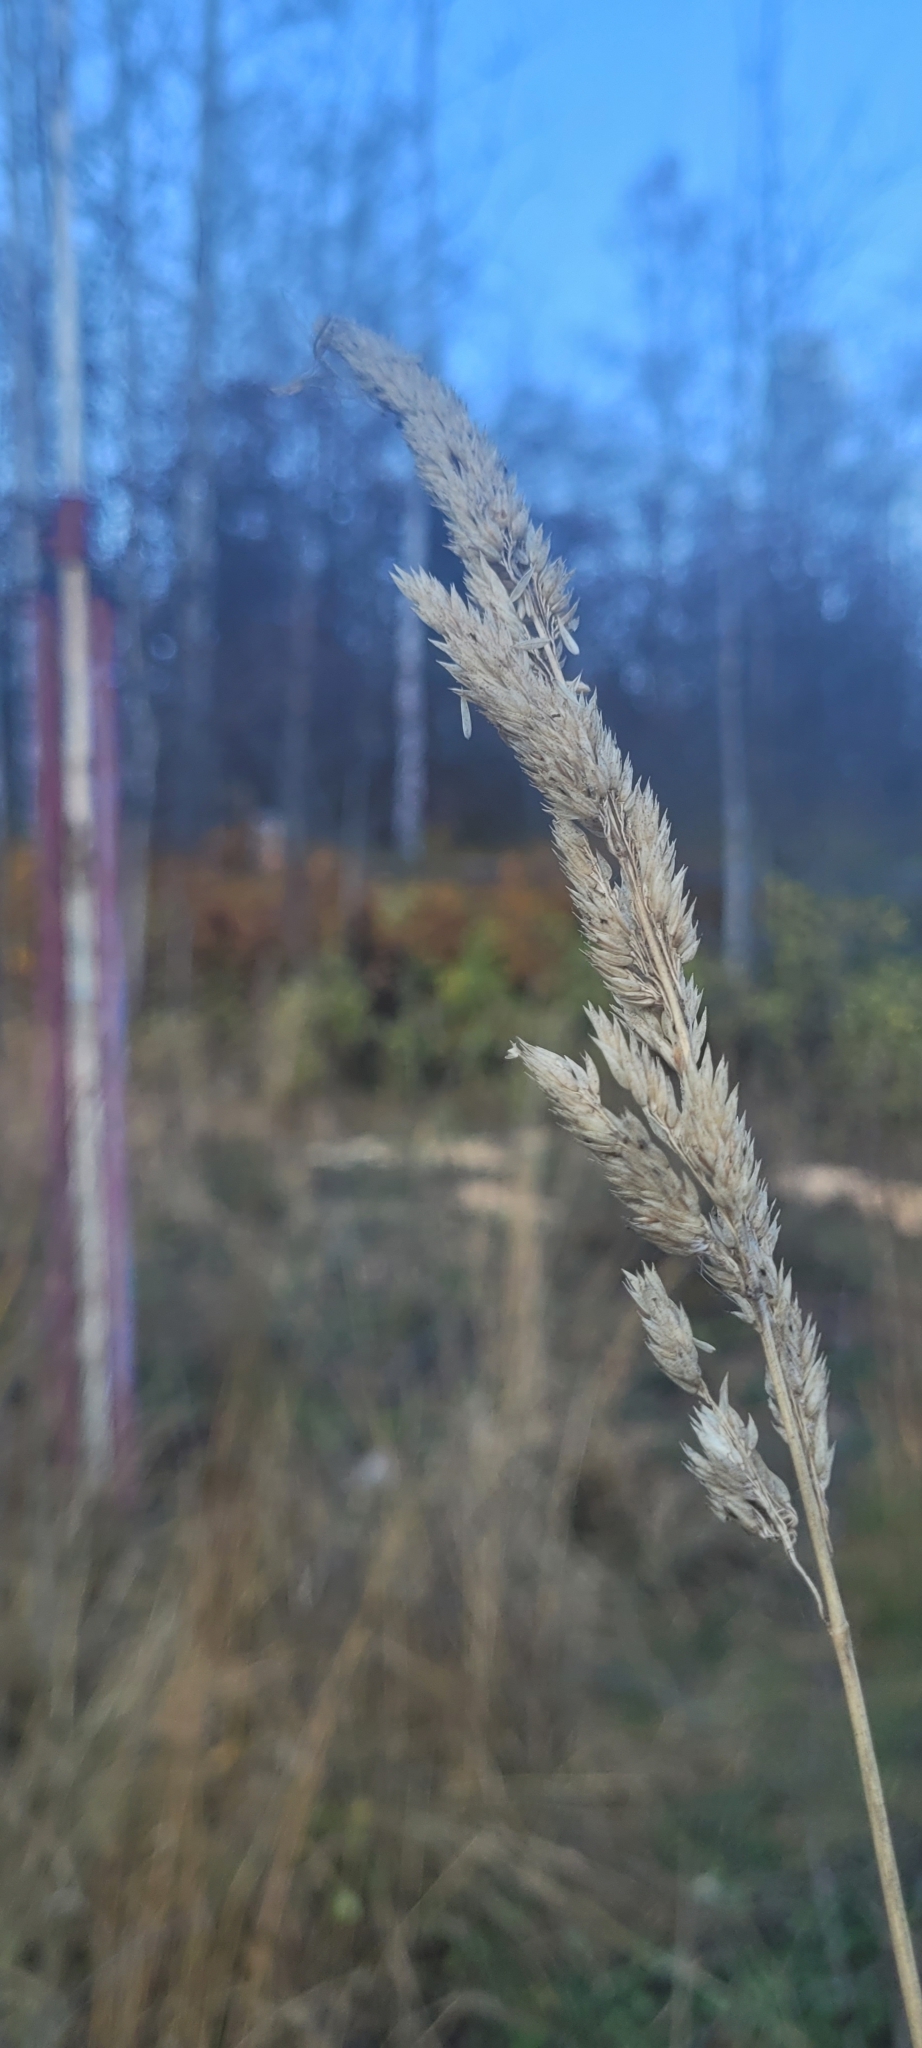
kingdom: Plantae
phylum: Tracheophyta
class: Liliopsida
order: Poales
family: Poaceae
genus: Phalaris
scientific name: Phalaris arundinacea
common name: Reed canary-grass
